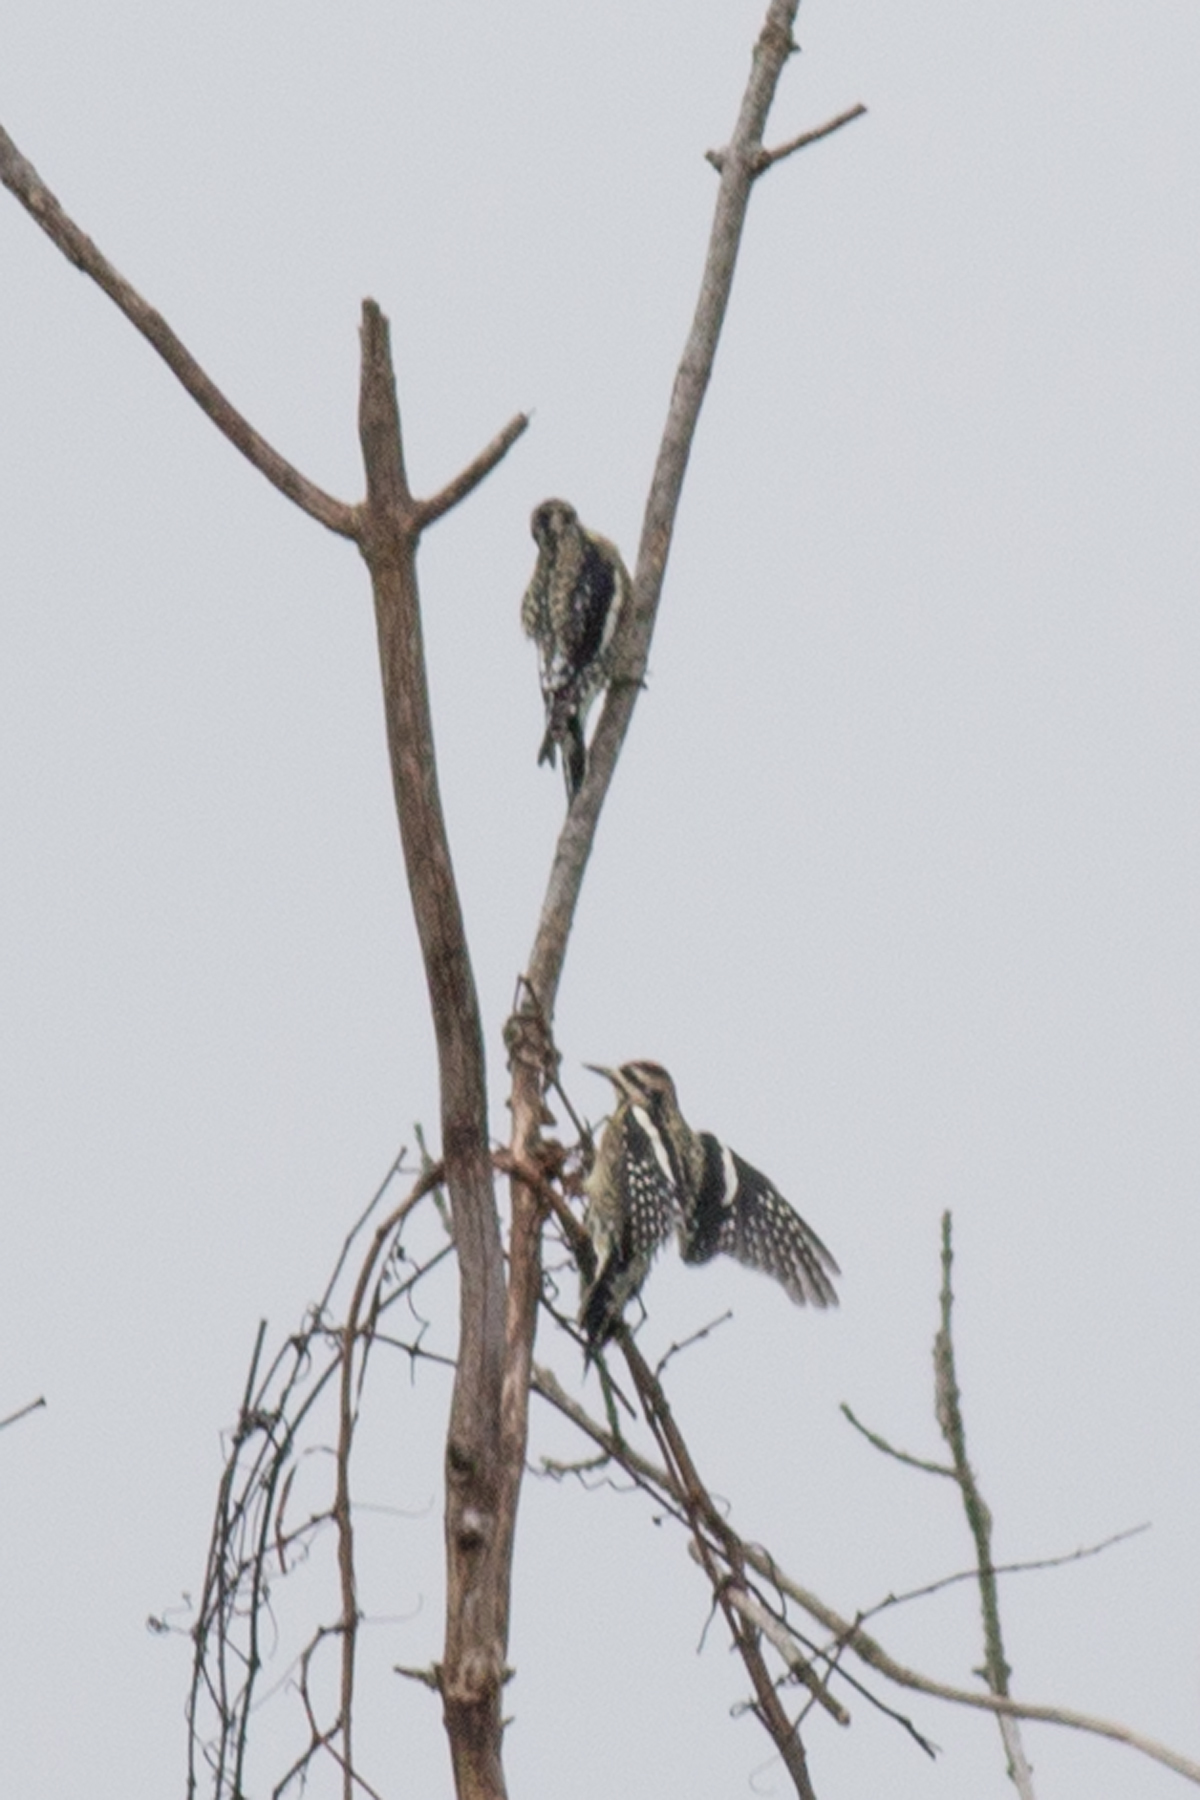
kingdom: Animalia
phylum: Chordata
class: Aves
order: Piciformes
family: Picidae
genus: Sphyrapicus
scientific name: Sphyrapicus varius
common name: Yellow-bellied sapsucker
